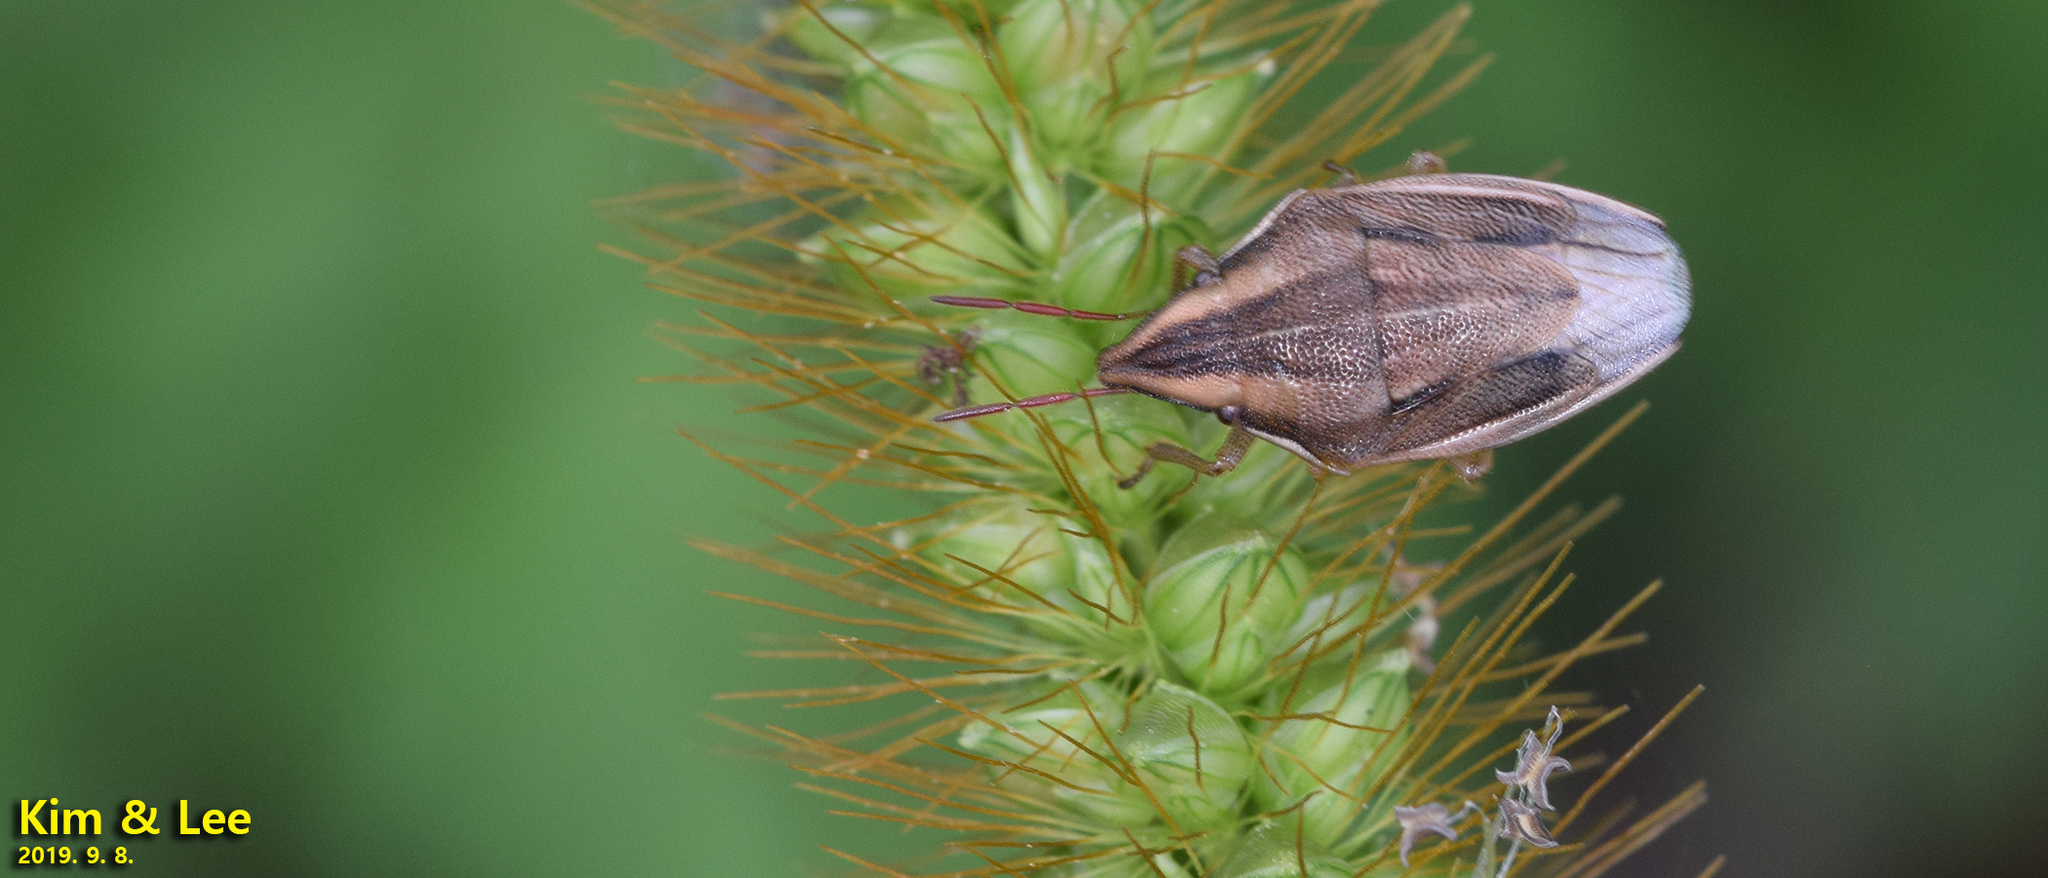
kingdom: Animalia
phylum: Arthropoda
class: Insecta
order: Hemiptera
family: Pentatomidae
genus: Aelia
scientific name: Aelia
